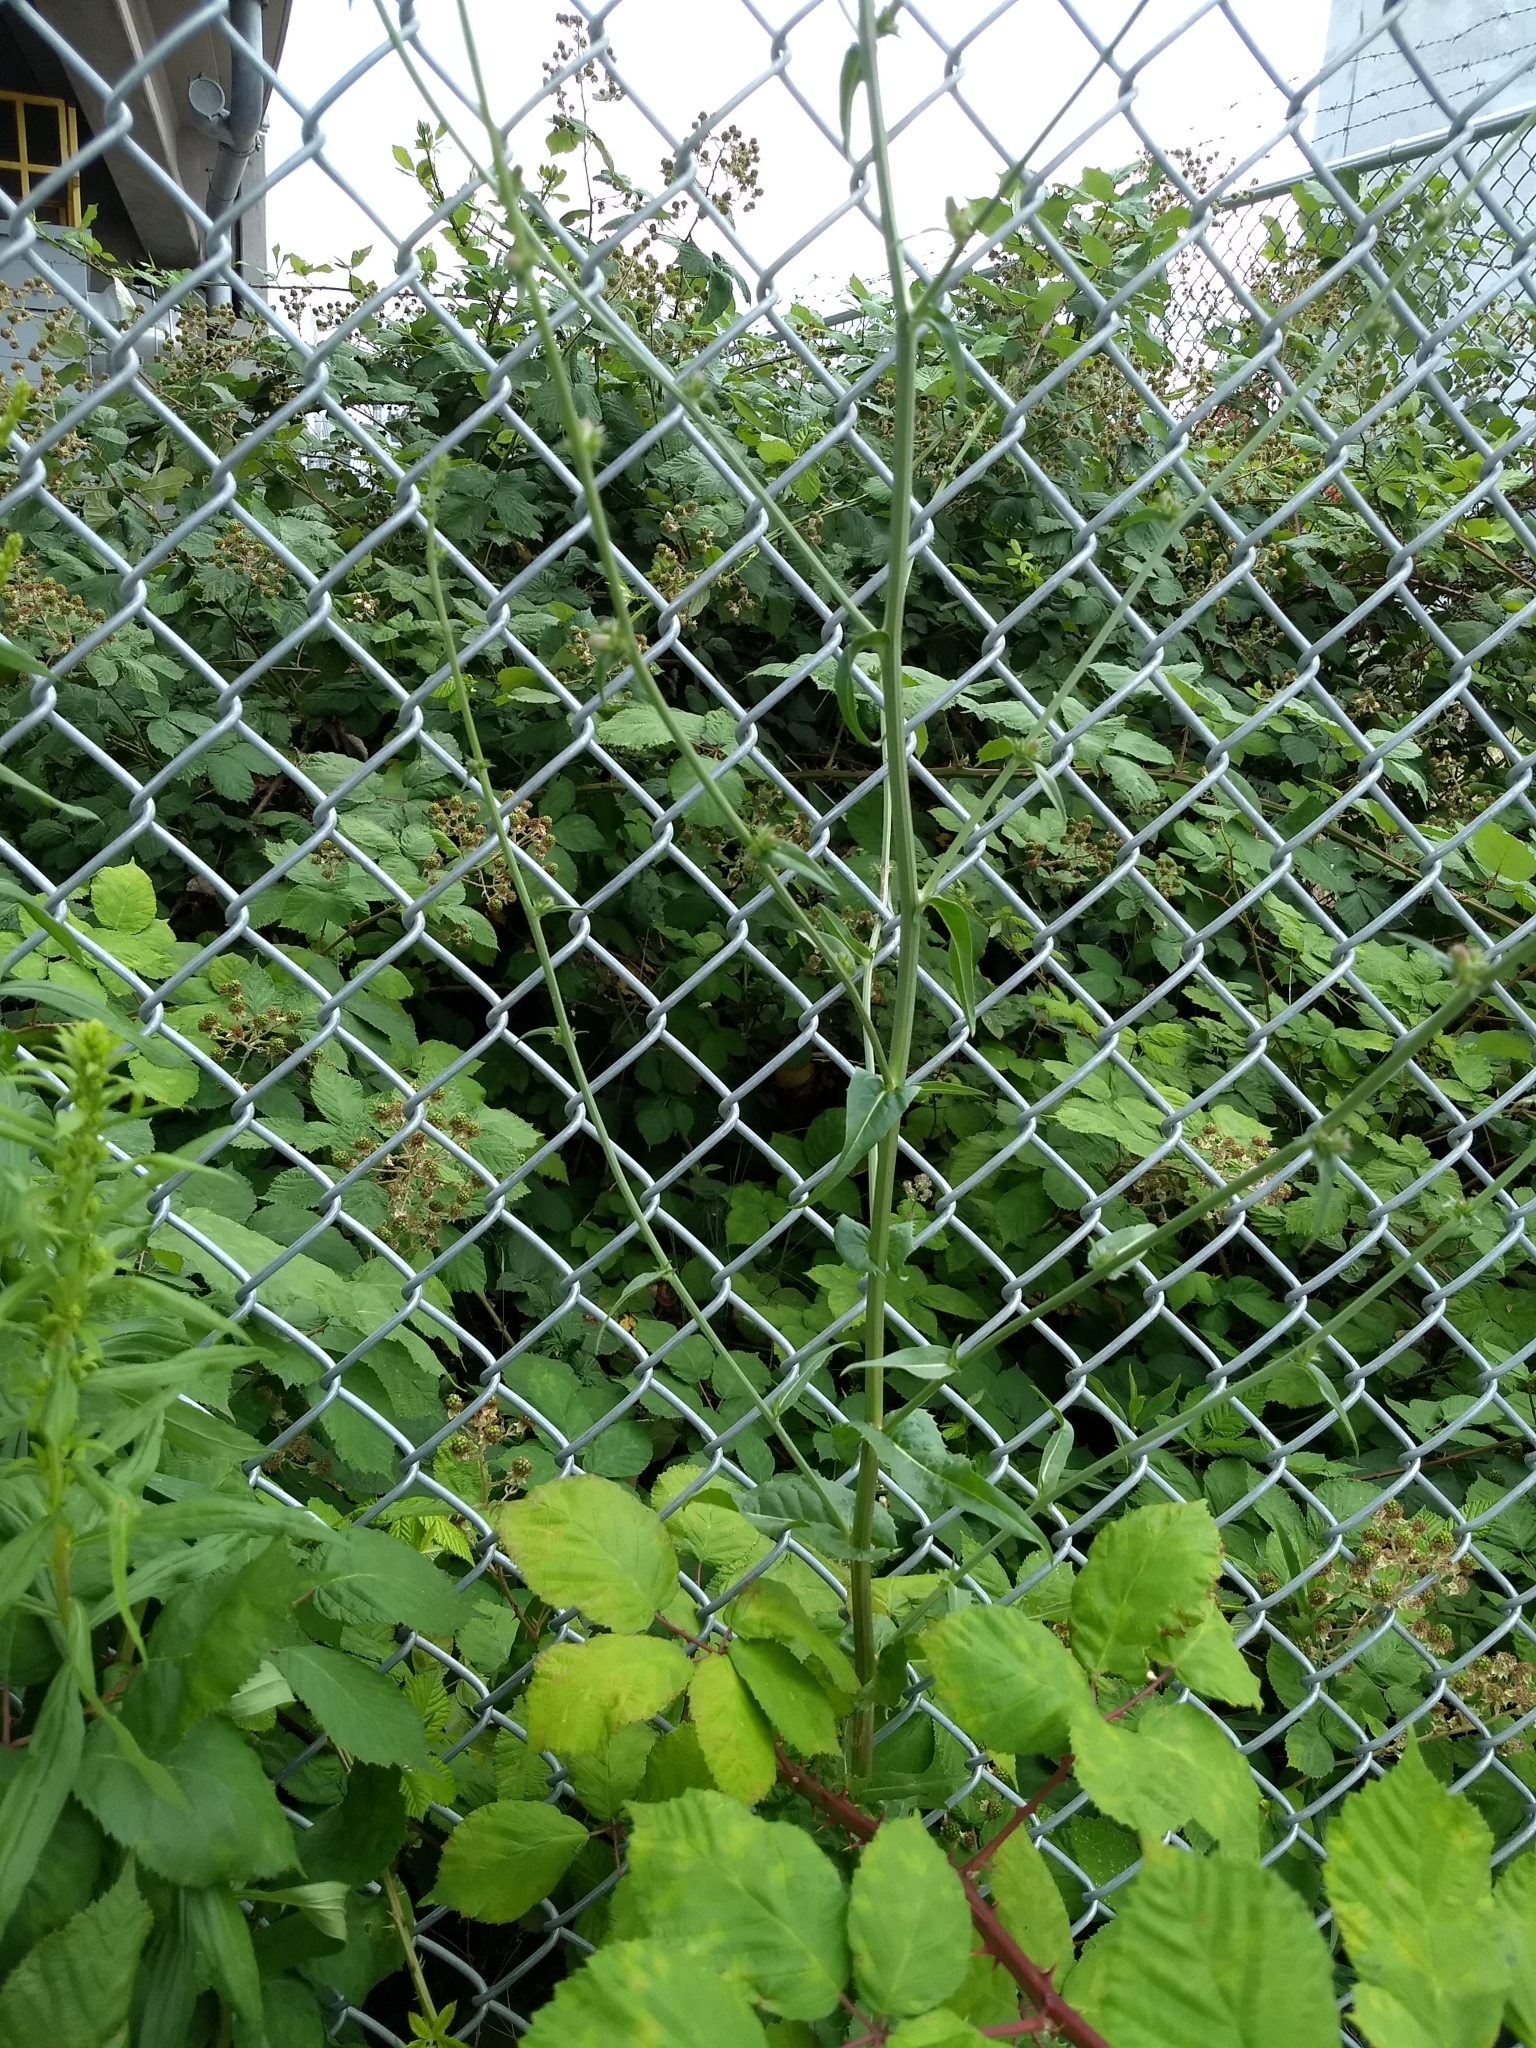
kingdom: Plantae
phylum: Tracheophyta
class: Magnoliopsida
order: Asterales
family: Asteraceae
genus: Cichorium
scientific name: Cichorium intybus
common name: Chicory
